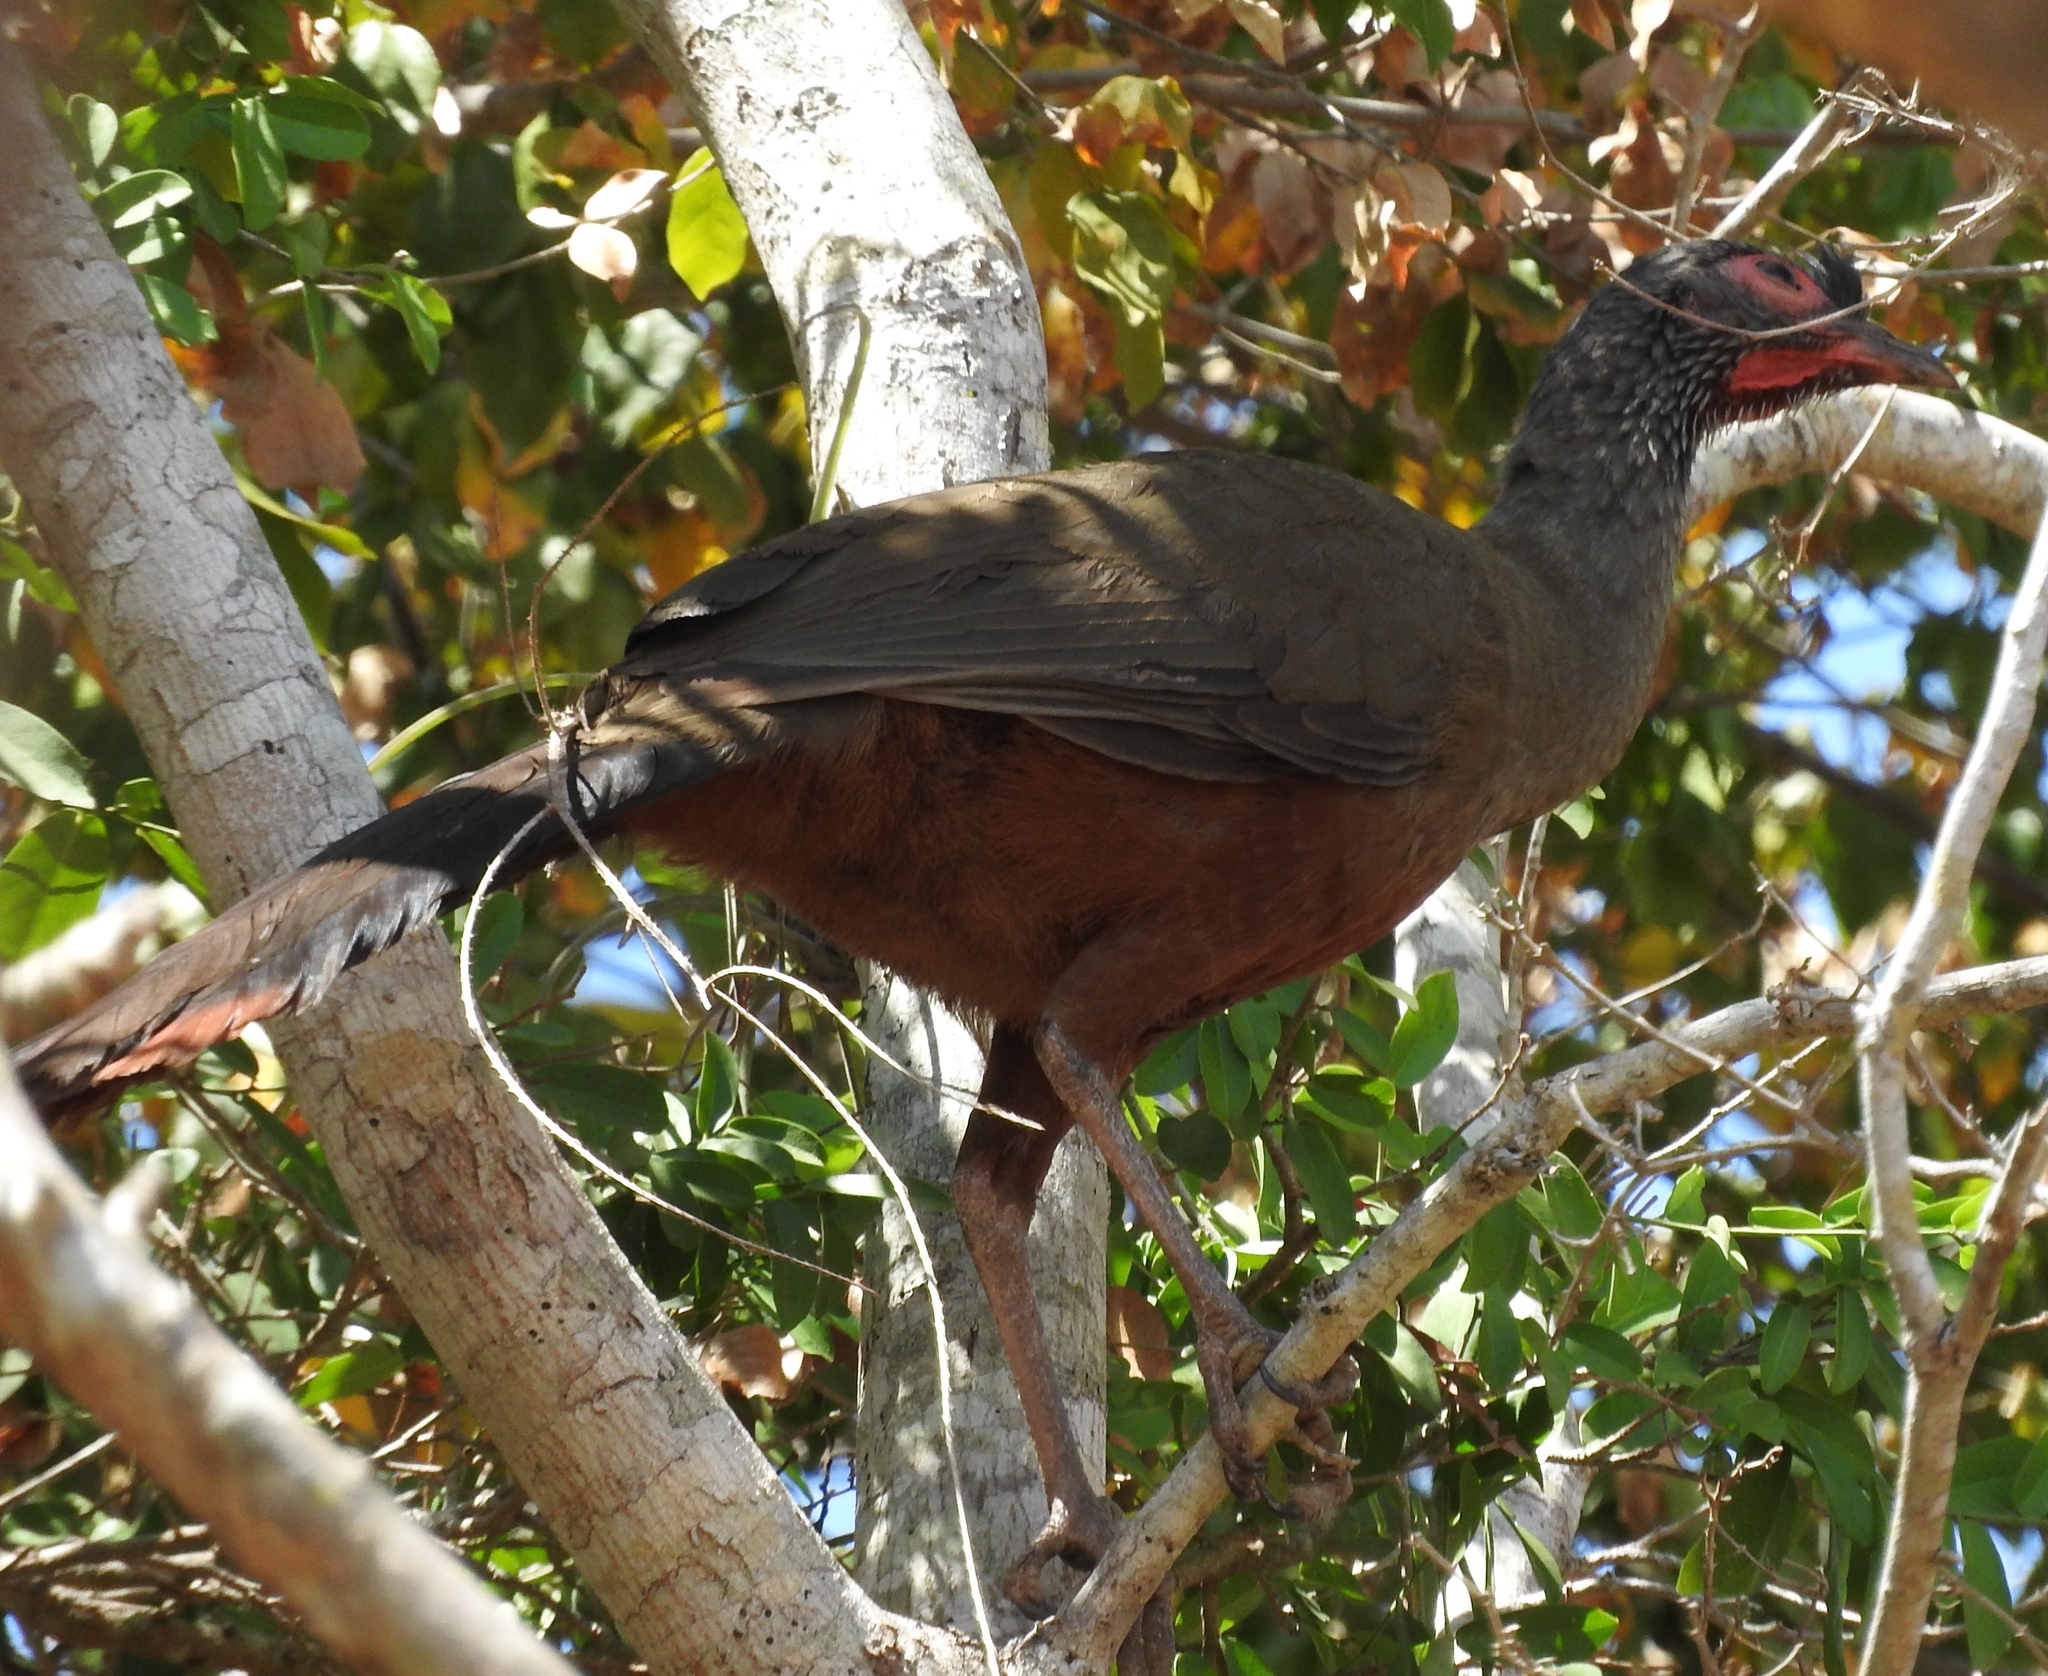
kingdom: Animalia
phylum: Chordata
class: Aves
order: Galliformes
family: Cracidae
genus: Ortalis
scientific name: Ortalis wagleri
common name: Rufous-bellied chachalaca
